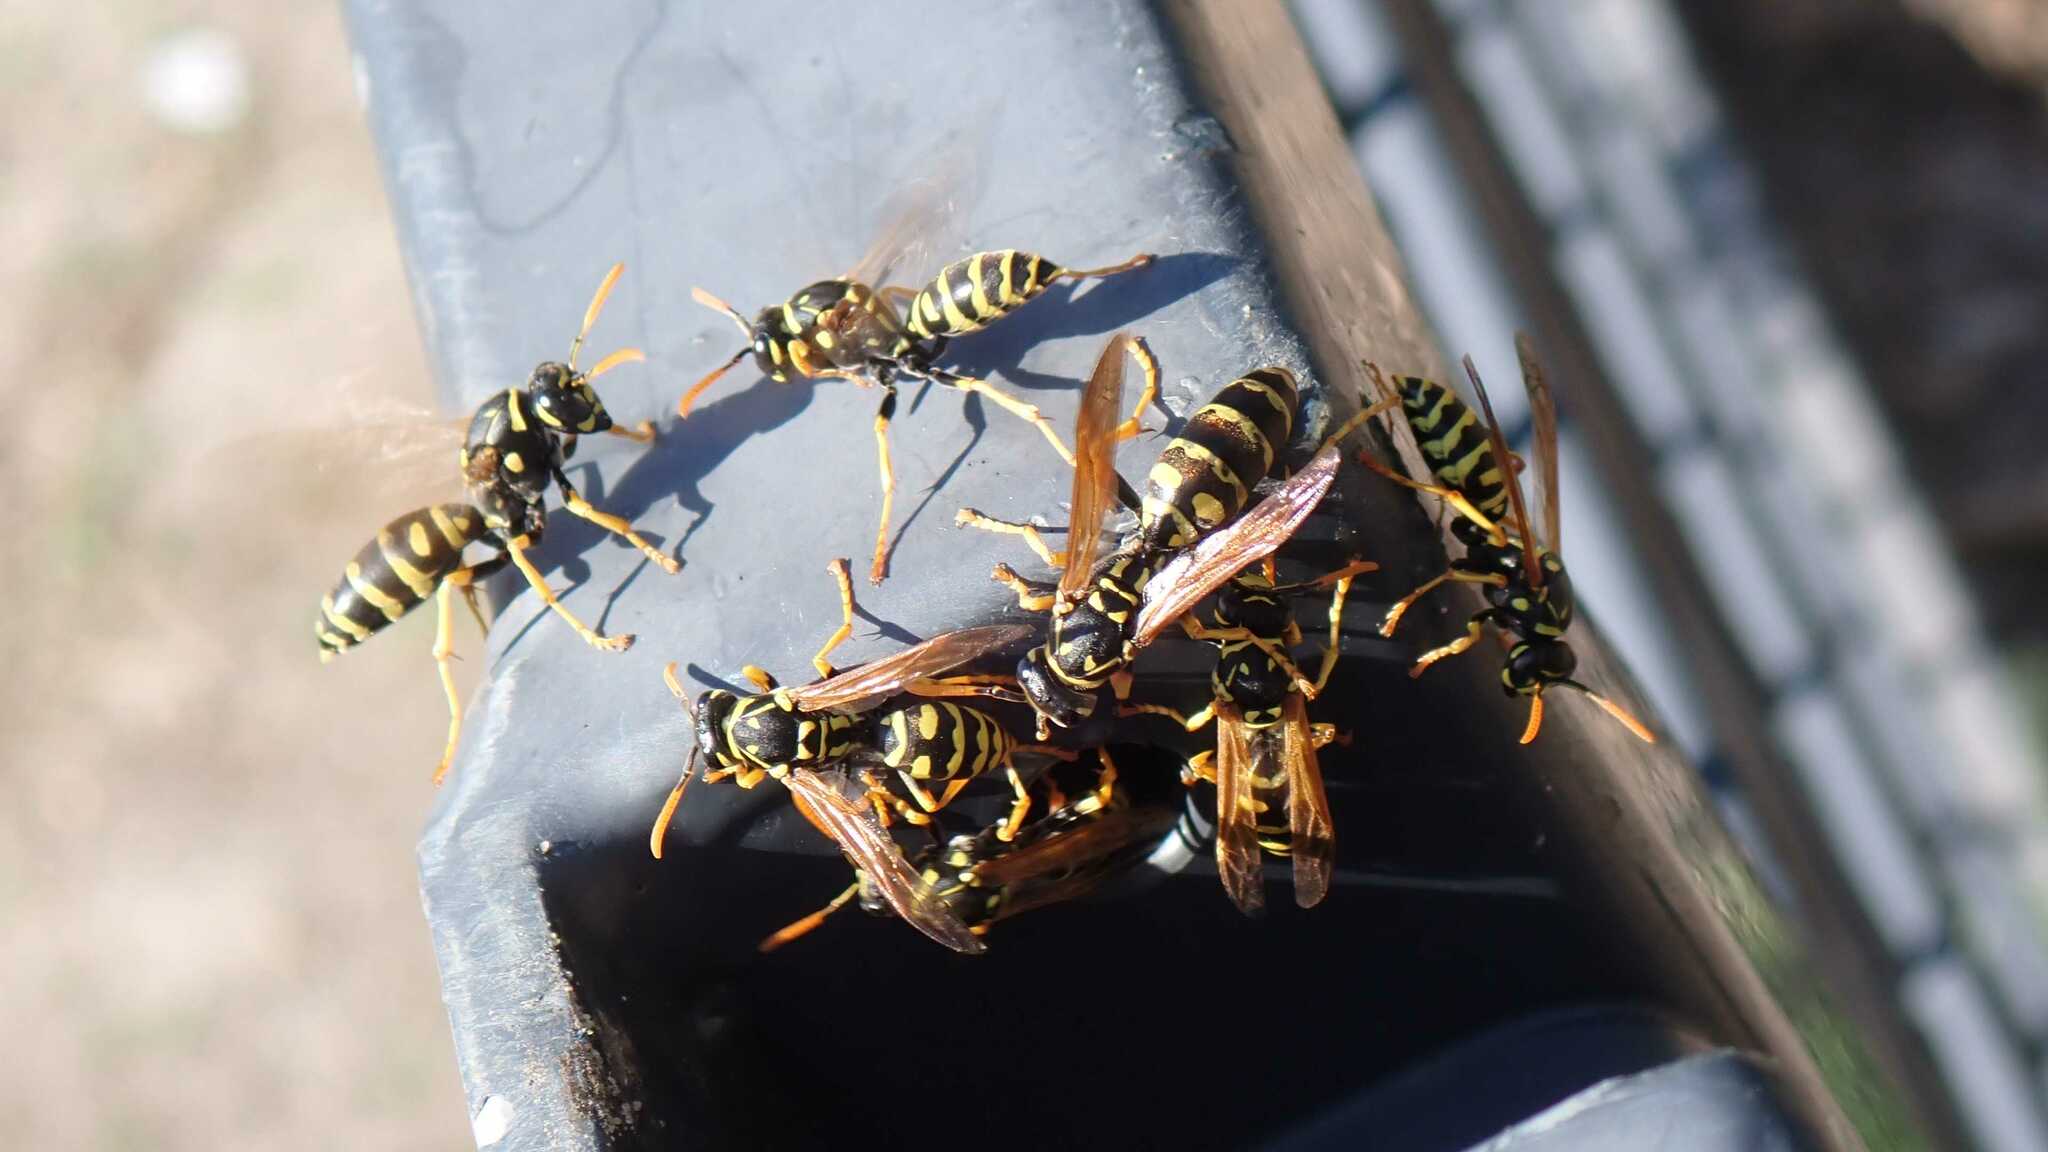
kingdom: Animalia
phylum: Arthropoda
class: Insecta
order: Hymenoptera
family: Eumenidae
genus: Polistes
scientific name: Polistes dominula
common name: Paper wasp
